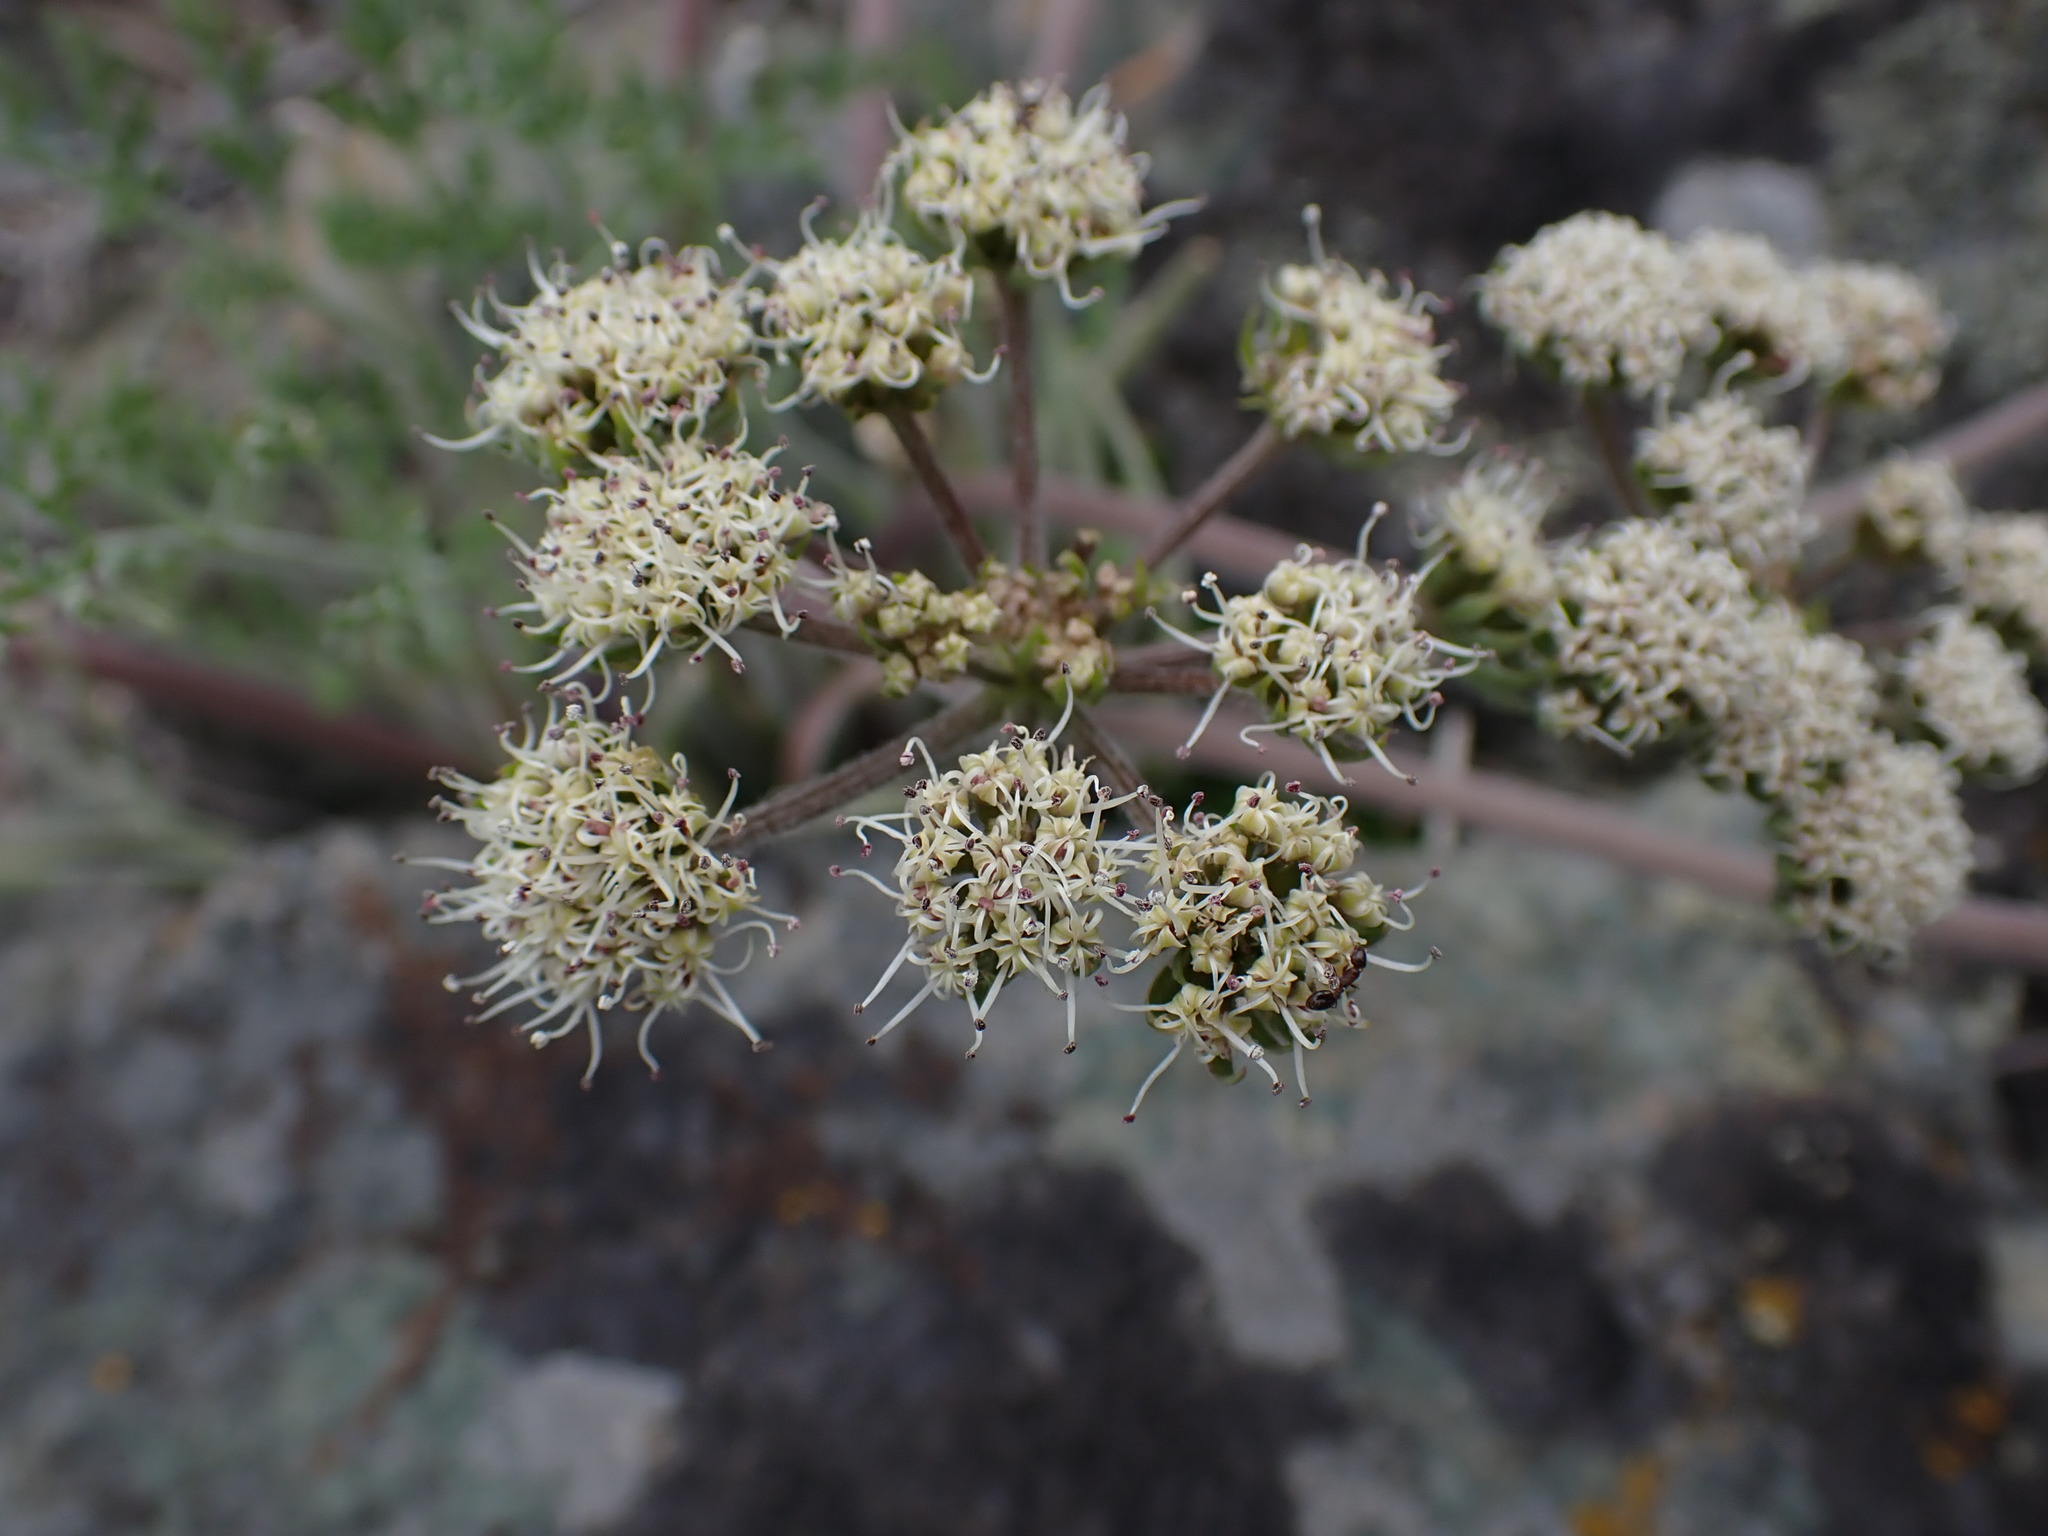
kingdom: Plantae
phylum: Tracheophyta
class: Magnoliopsida
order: Apiales
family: Apiaceae
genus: Lomatium
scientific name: Lomatium macrocarpum
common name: Big-seed biscuitroot
